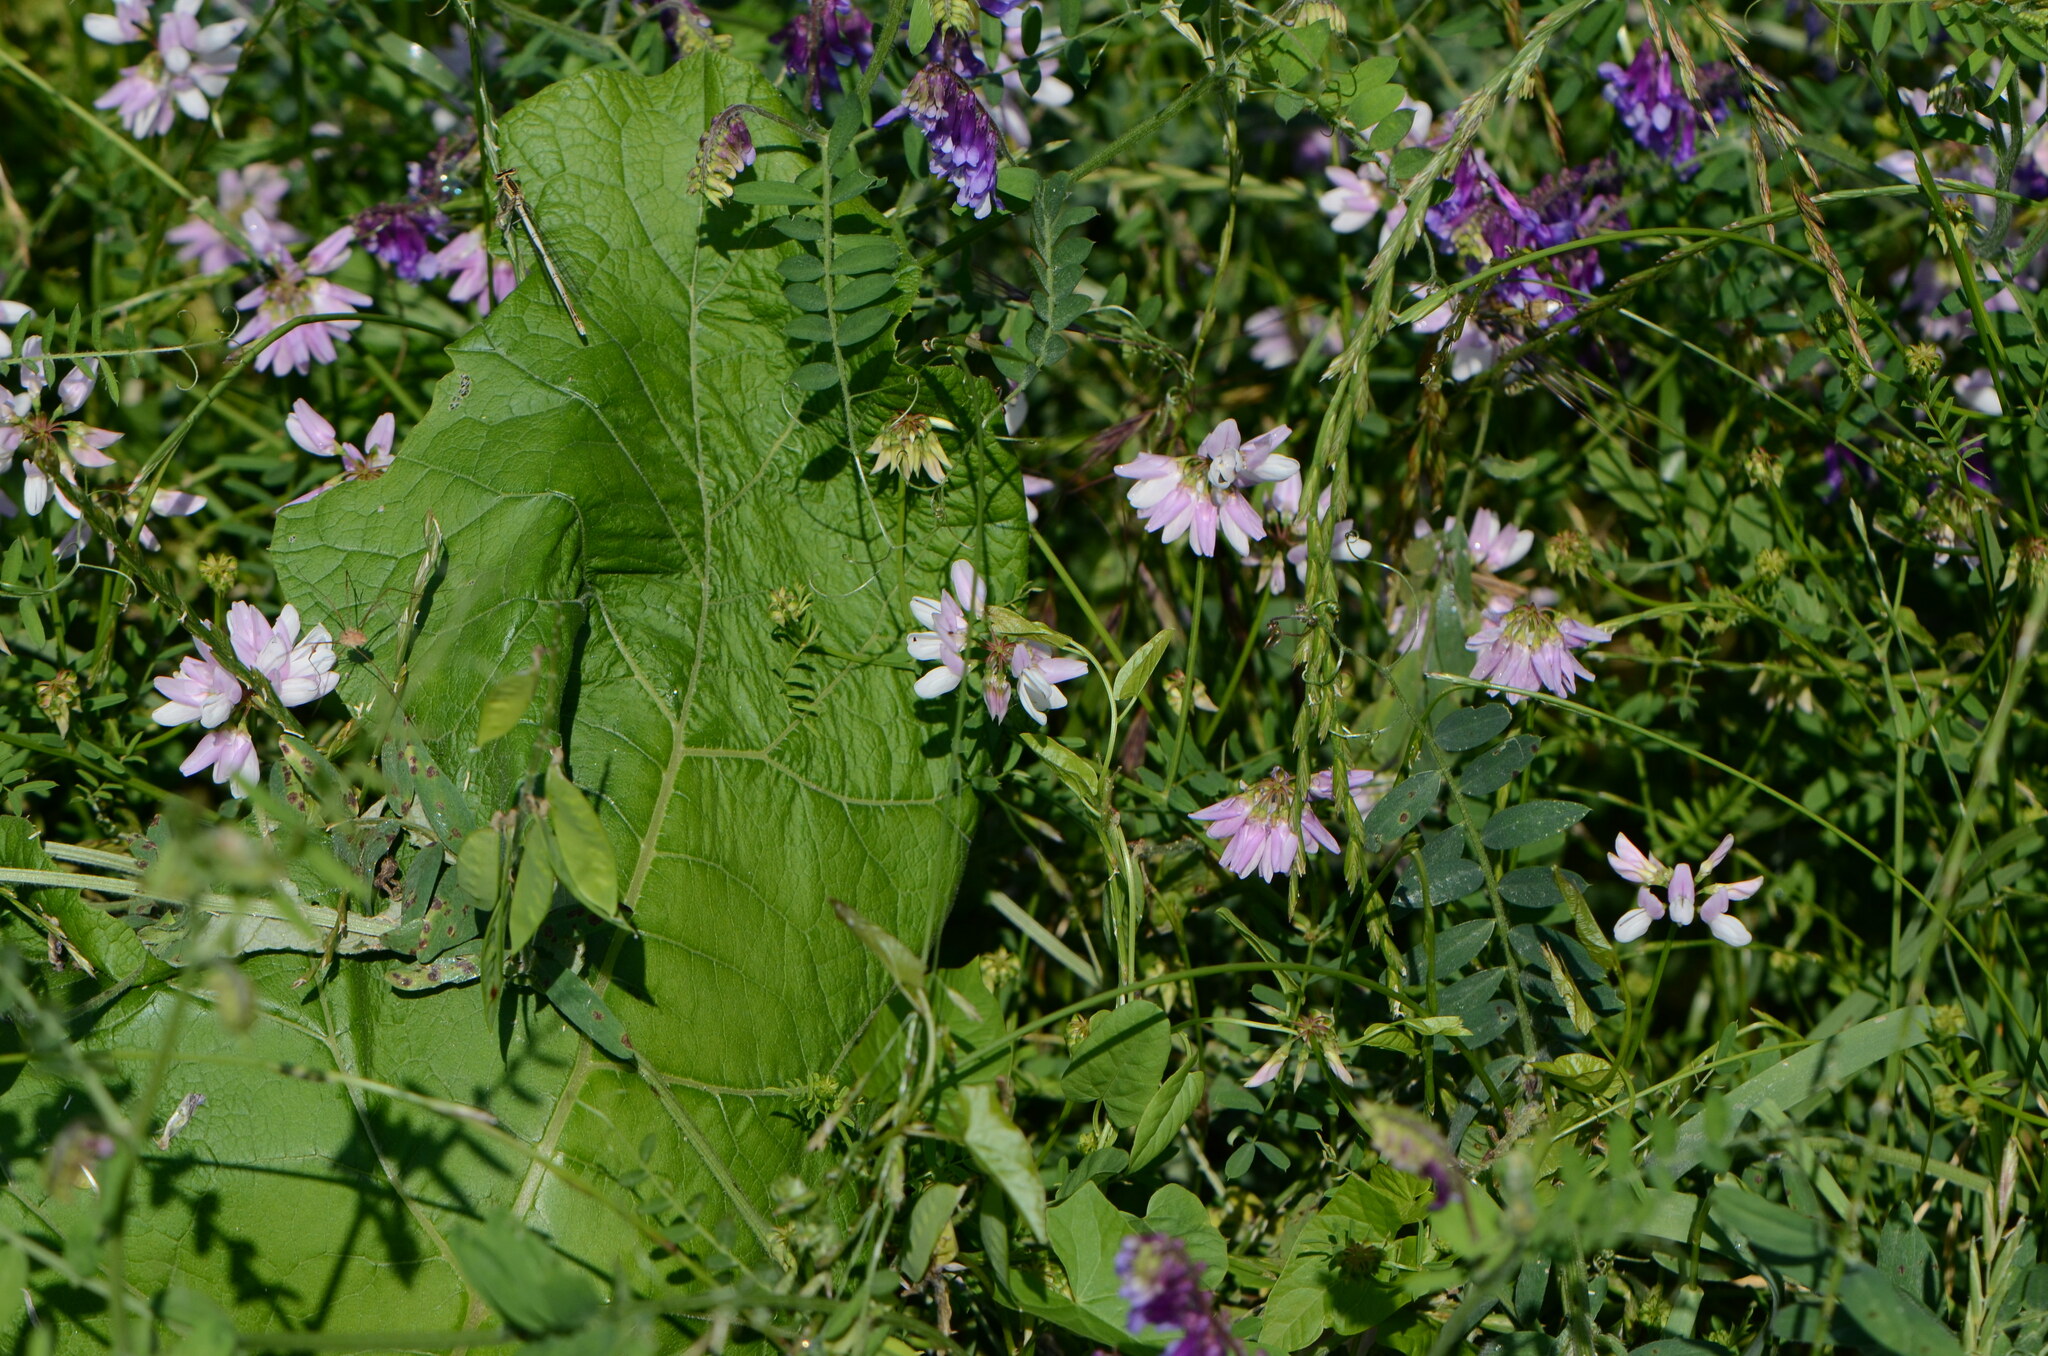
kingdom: Plantae
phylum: Tracheophyta
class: Magnoliopsida
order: Fabales
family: Fabaceae
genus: Coronilla
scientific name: Coronilla varia
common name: Crownvetch
